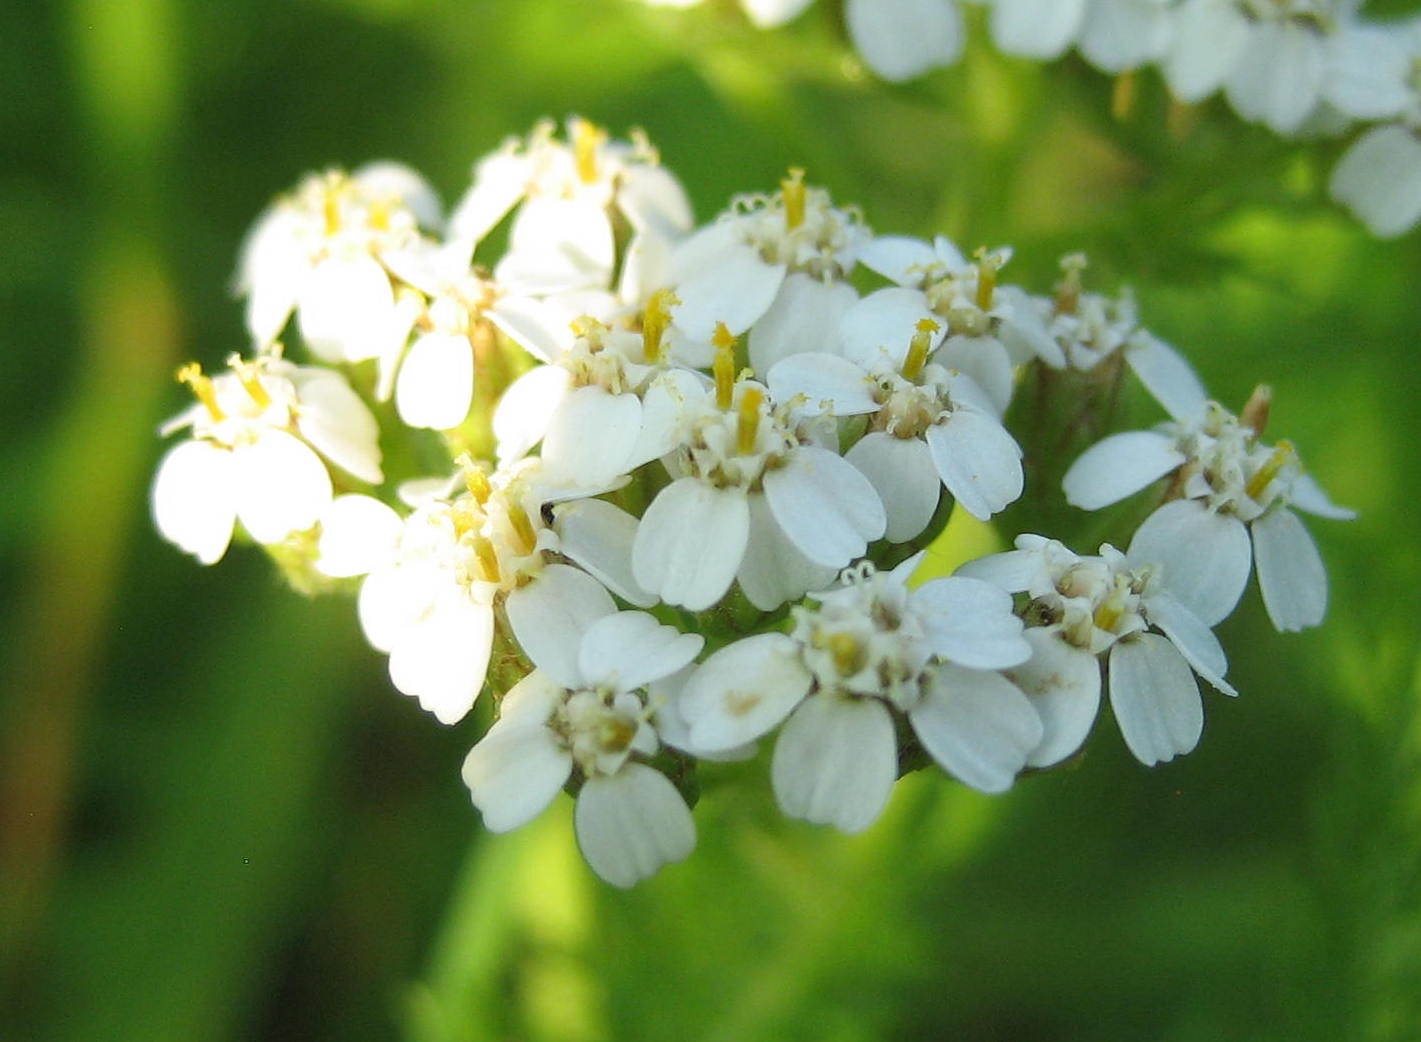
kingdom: Plantae
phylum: Tracheophyta
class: Magnoliopsida
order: Asterales
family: Asteraceae
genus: Achillea
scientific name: Achillea millefolium
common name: Yarrow
